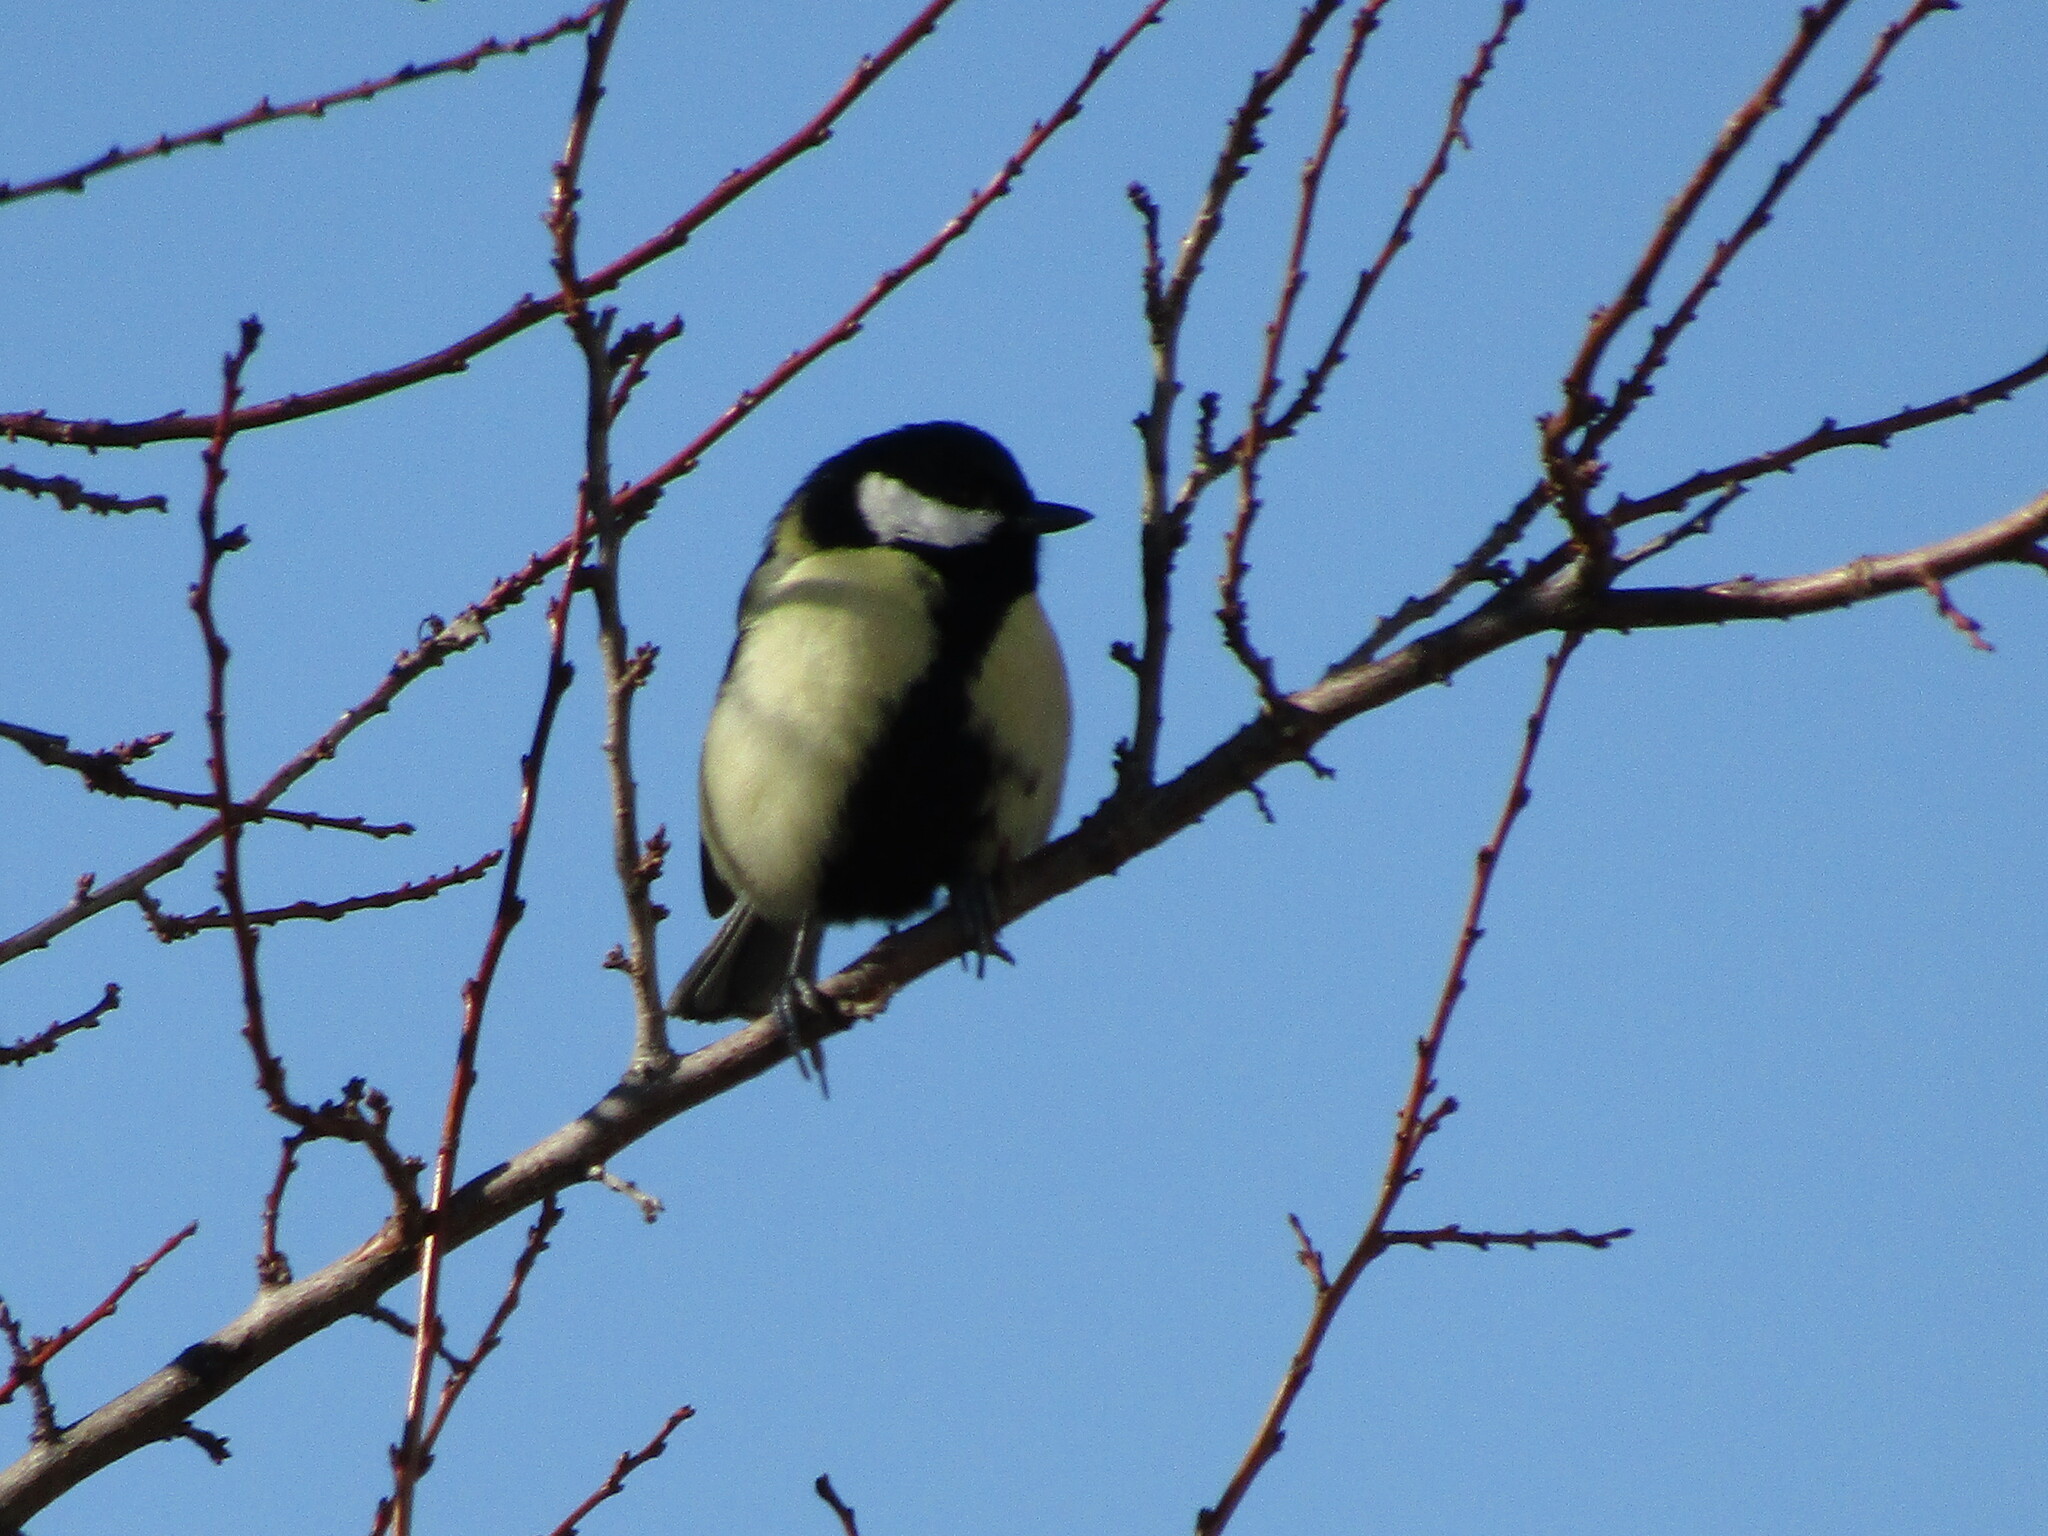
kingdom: Animalia
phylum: Chordata
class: Aves
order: Passeriformes
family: Paridae
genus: Parus
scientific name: Parus major
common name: Great tit
